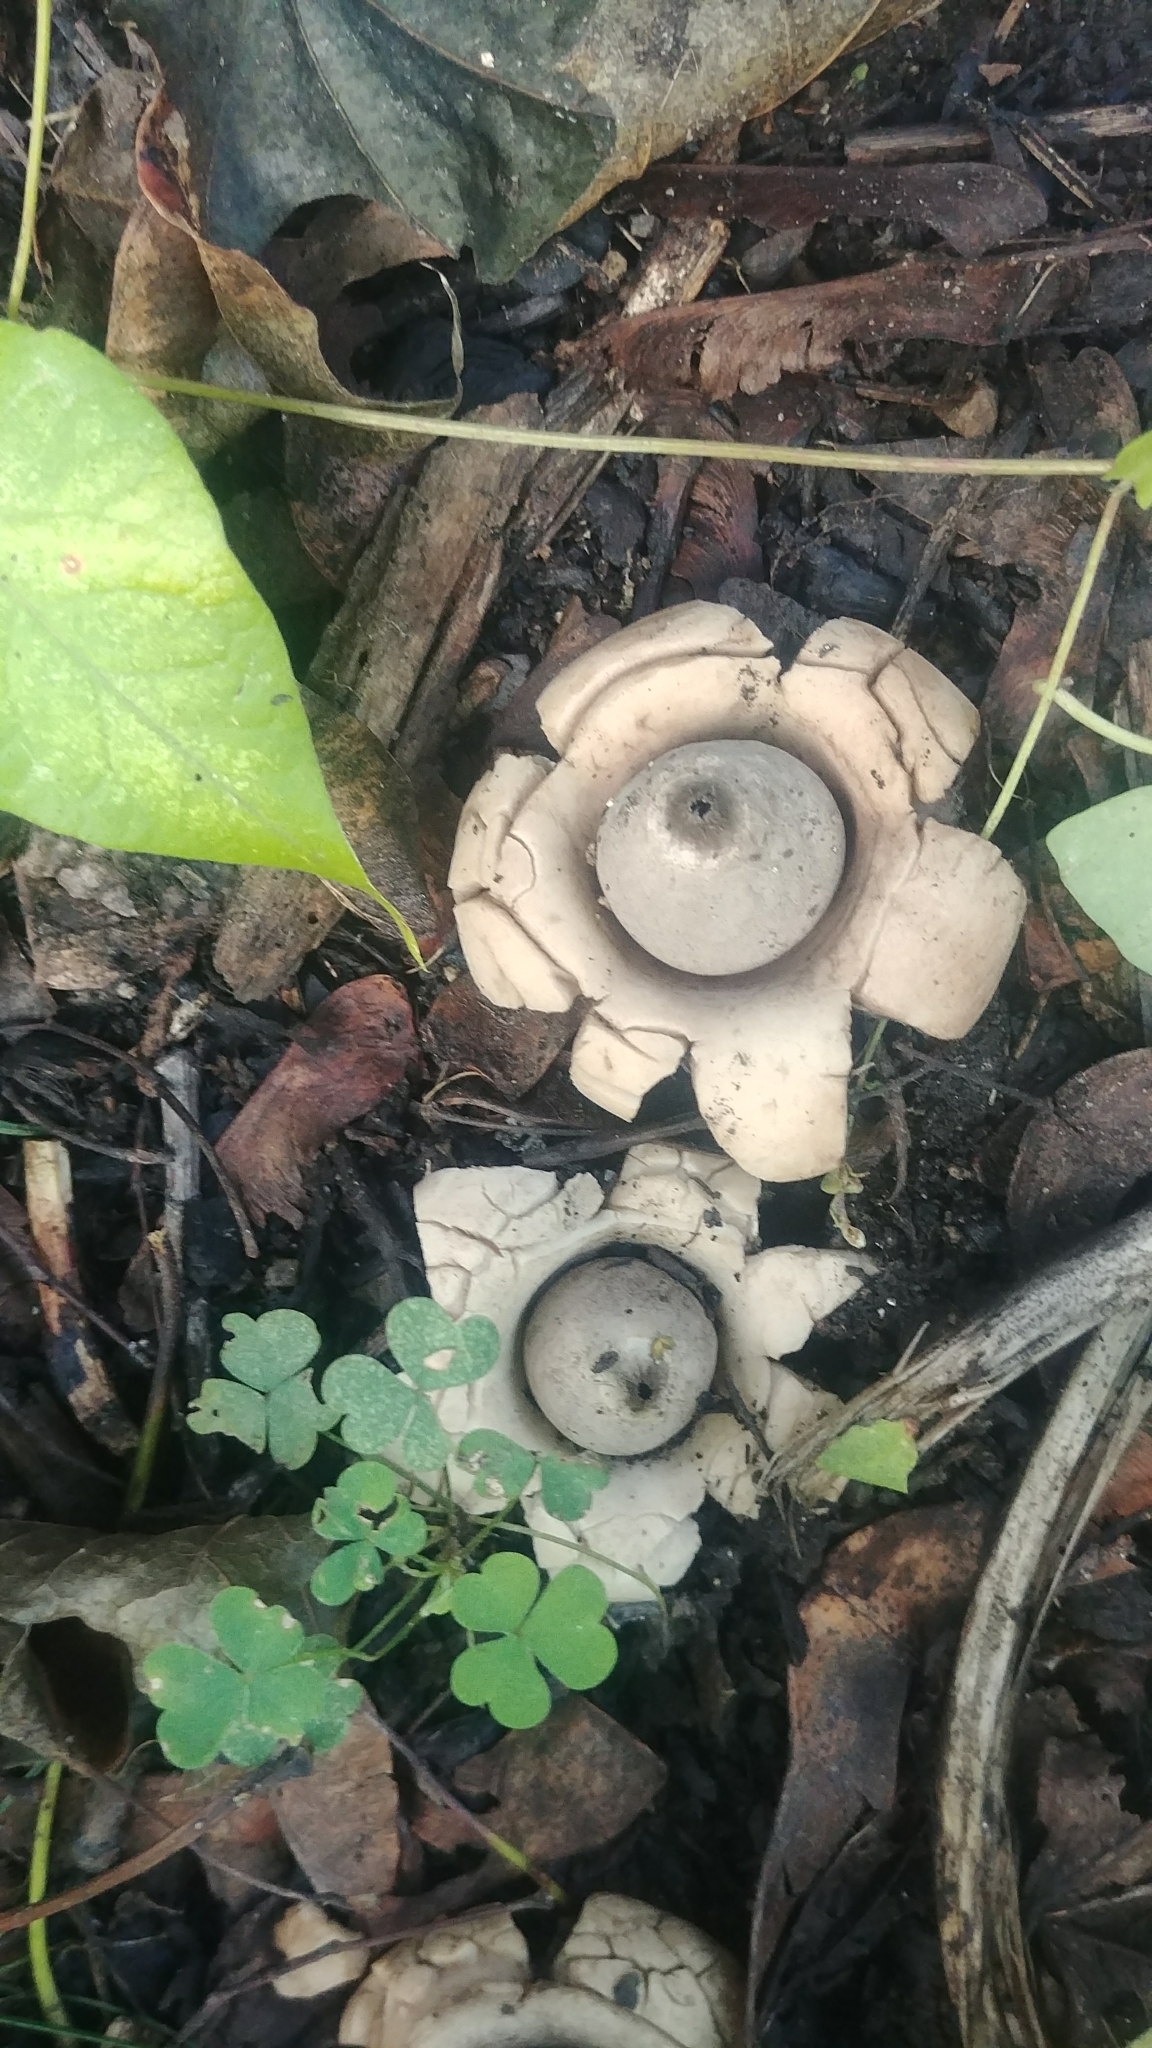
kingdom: Fungi
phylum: Basidiomycota
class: Agaricomycetes
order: Geastrales
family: Geastraceae
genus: Geastrum
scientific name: Geastrum saccatum
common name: Rounded earthstar
